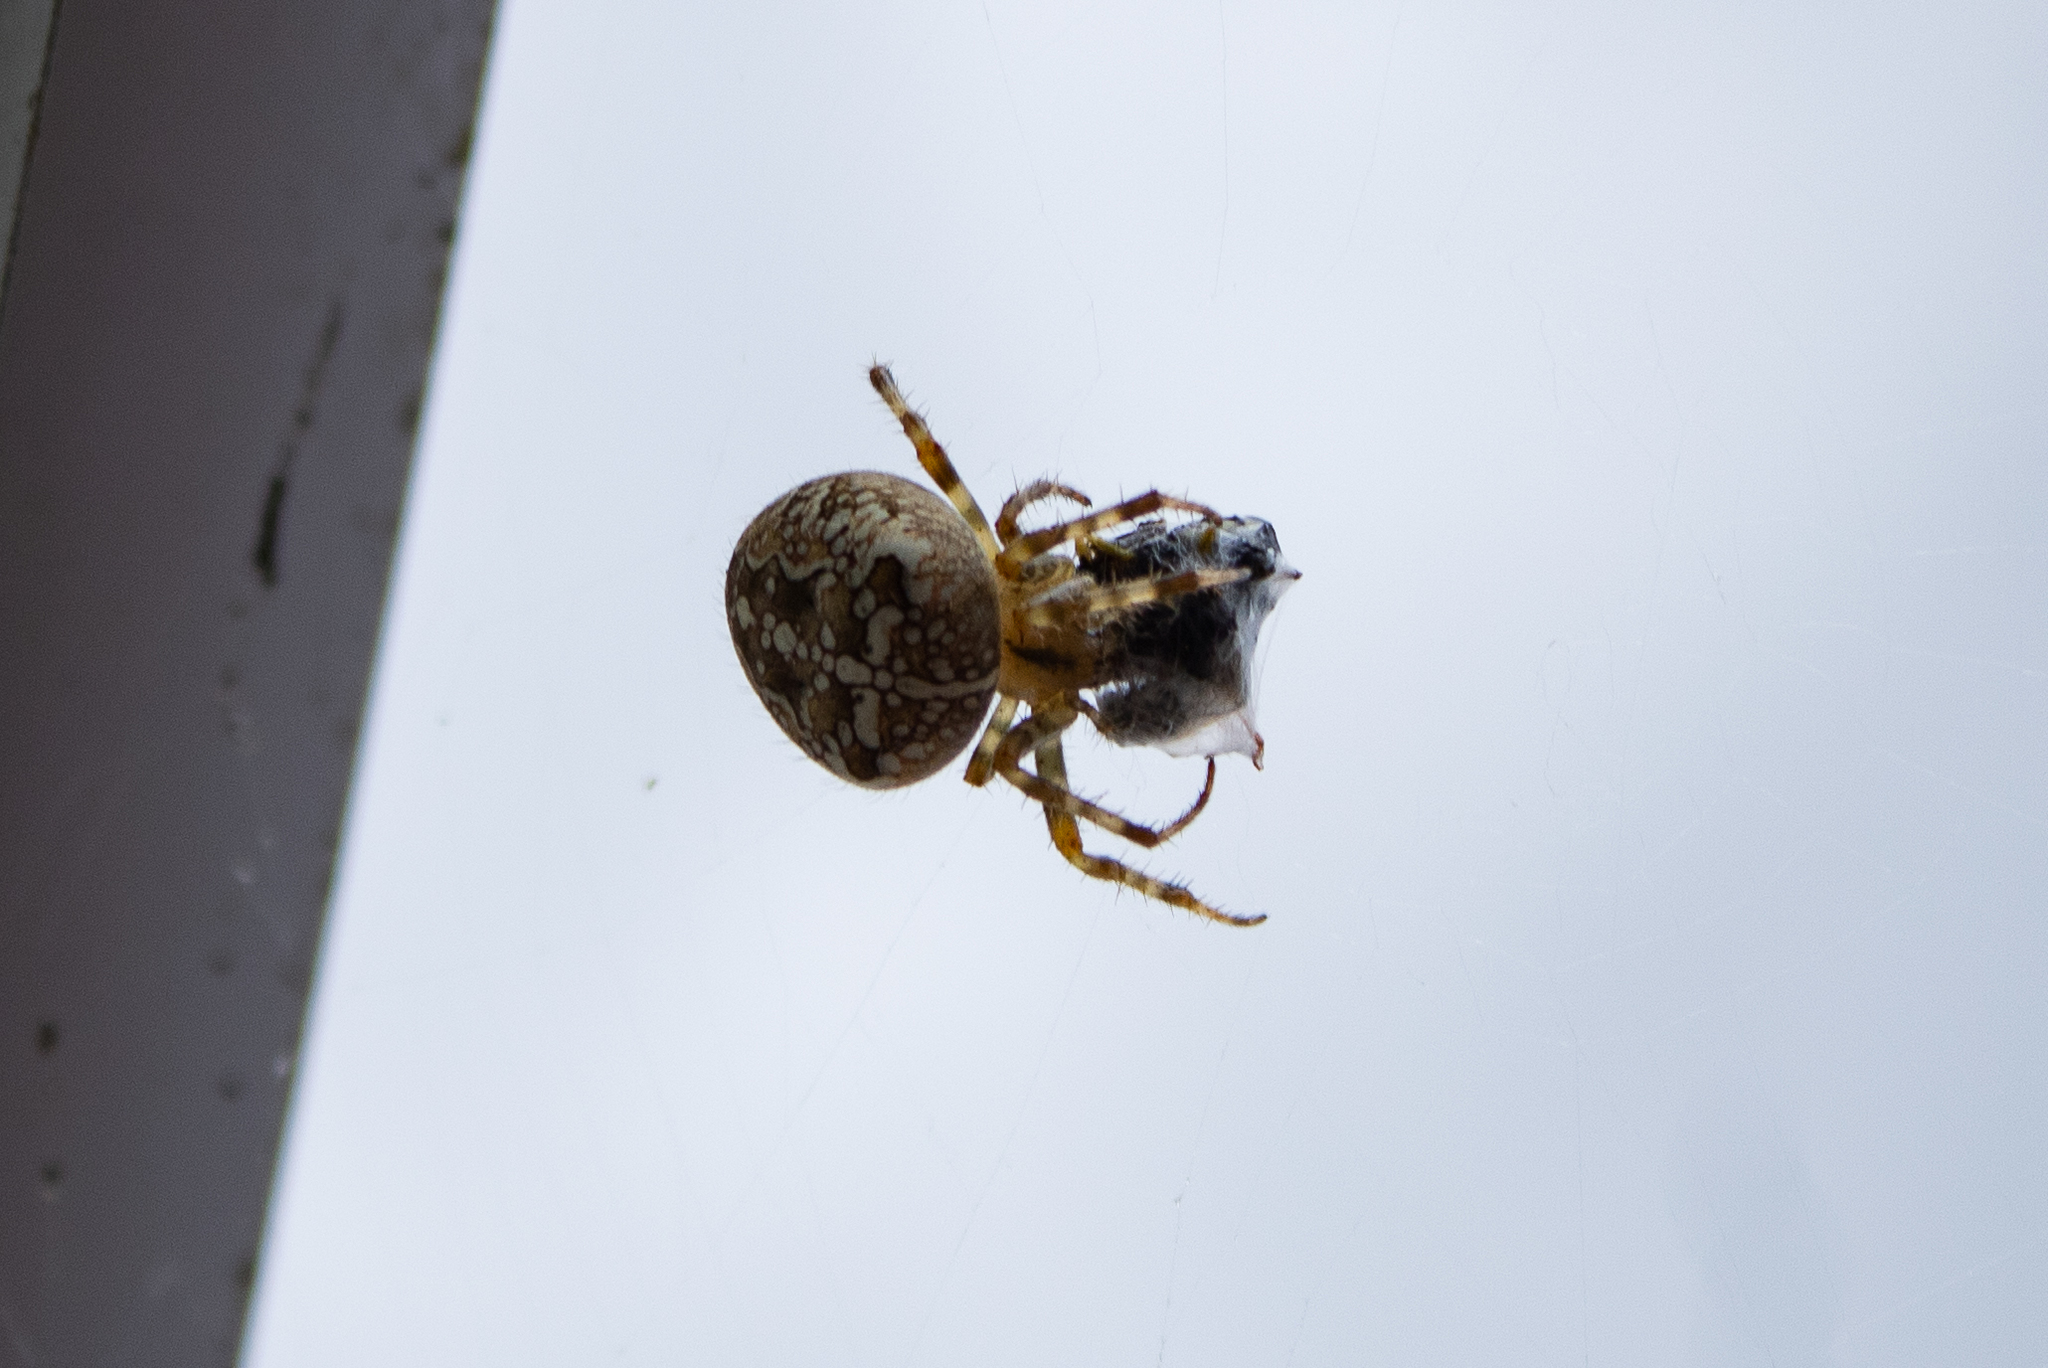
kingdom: Animalia
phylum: Arthropoda
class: Arachnida
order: Araneae
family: Araneidae
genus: Araneus
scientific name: Araneus diadematus
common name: Cross orbweaver
